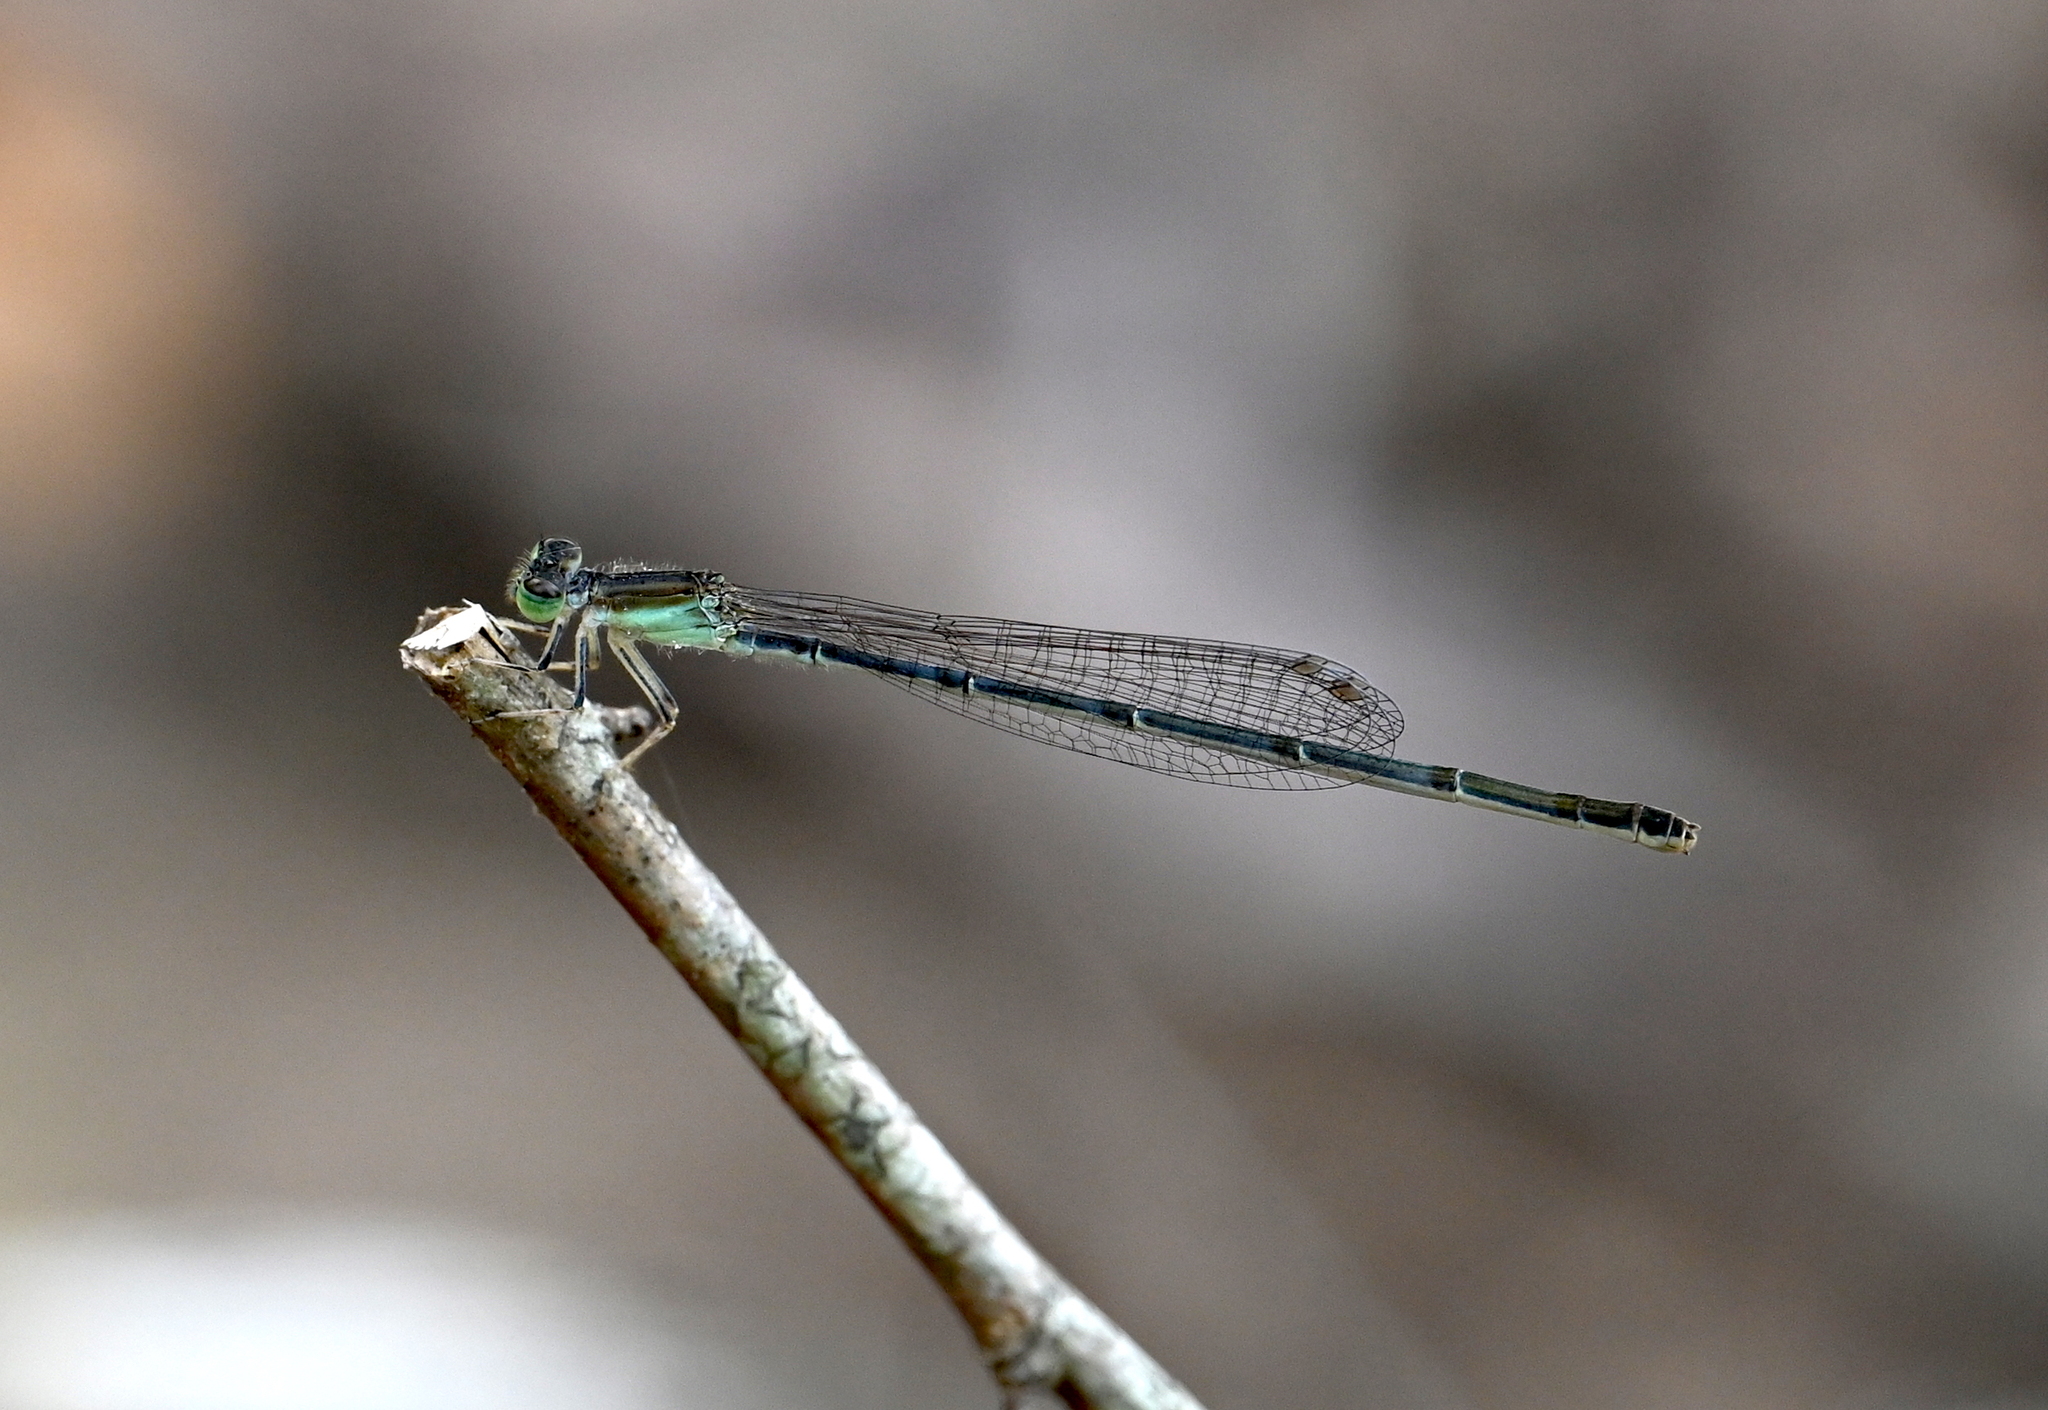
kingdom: Animalia
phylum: Arthropoda
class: Insecta
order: Odonata
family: Coenagrionidae
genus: Ischnura
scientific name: Ischnura prognata
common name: Furtive forktail
